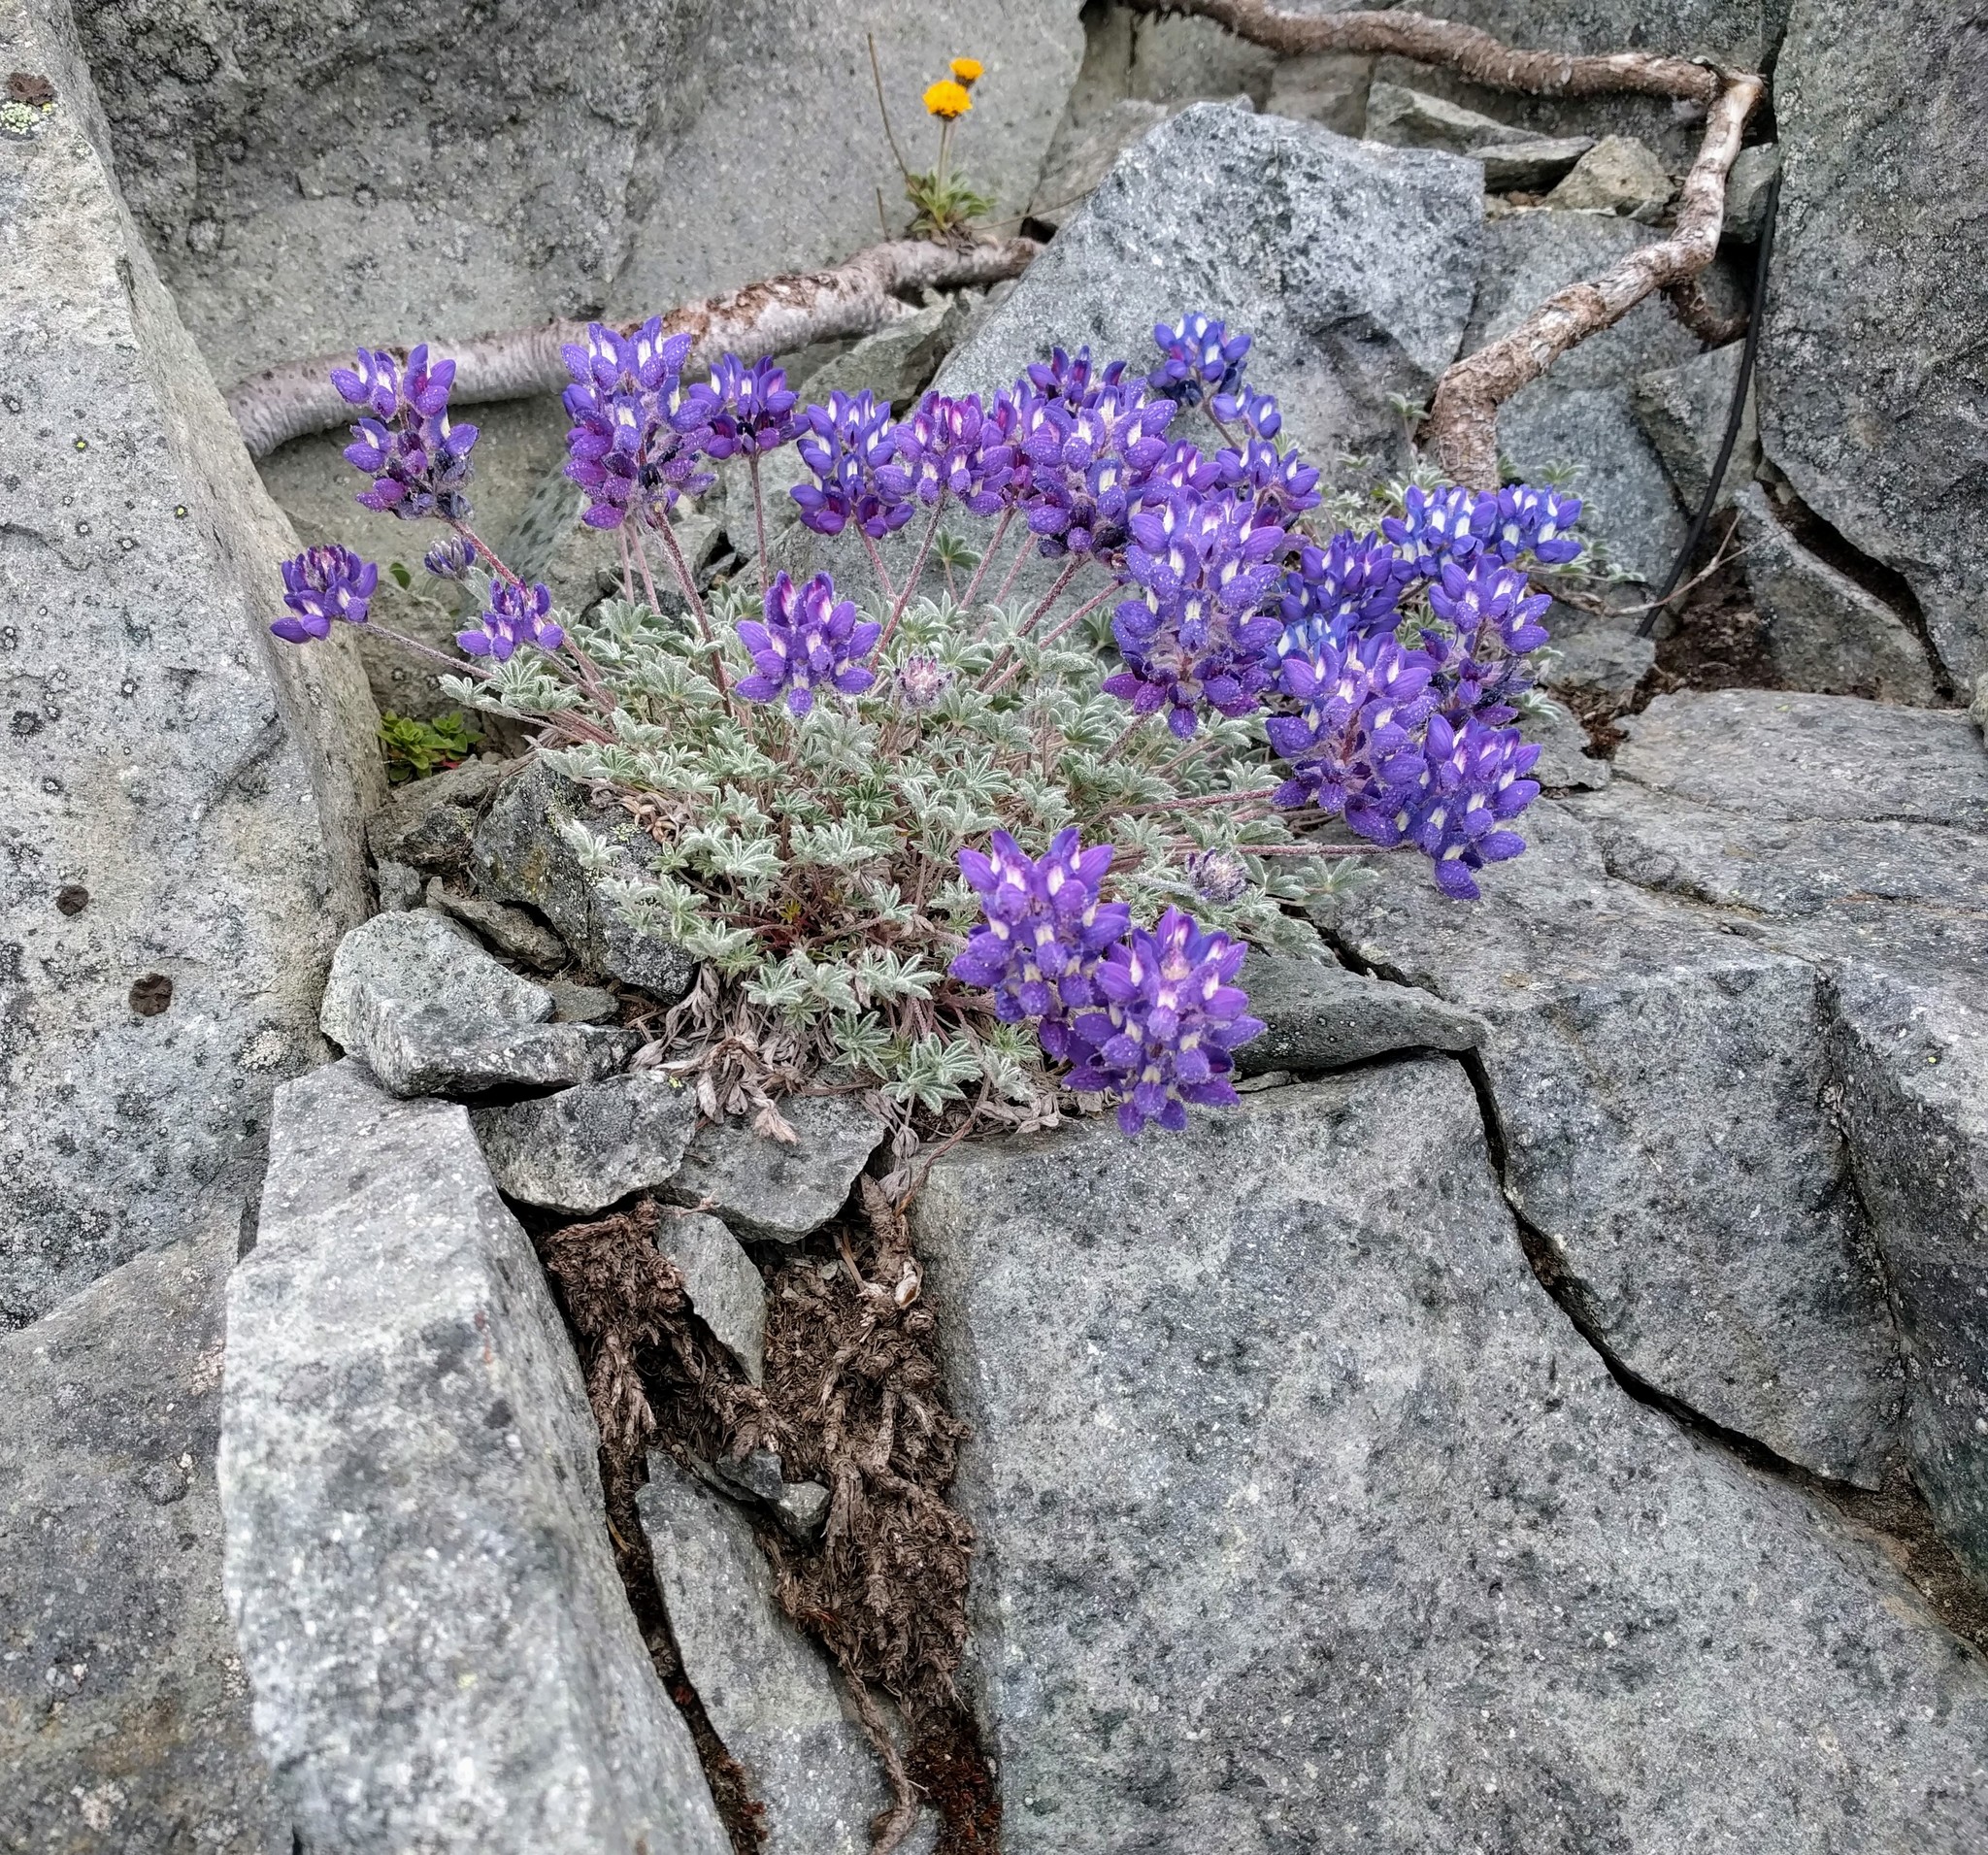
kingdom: Plantae
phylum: Tracheophyta
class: Magnoliopsida
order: Fabales
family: Fabaceae
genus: Lupinus
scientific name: Lupinus sellulus
